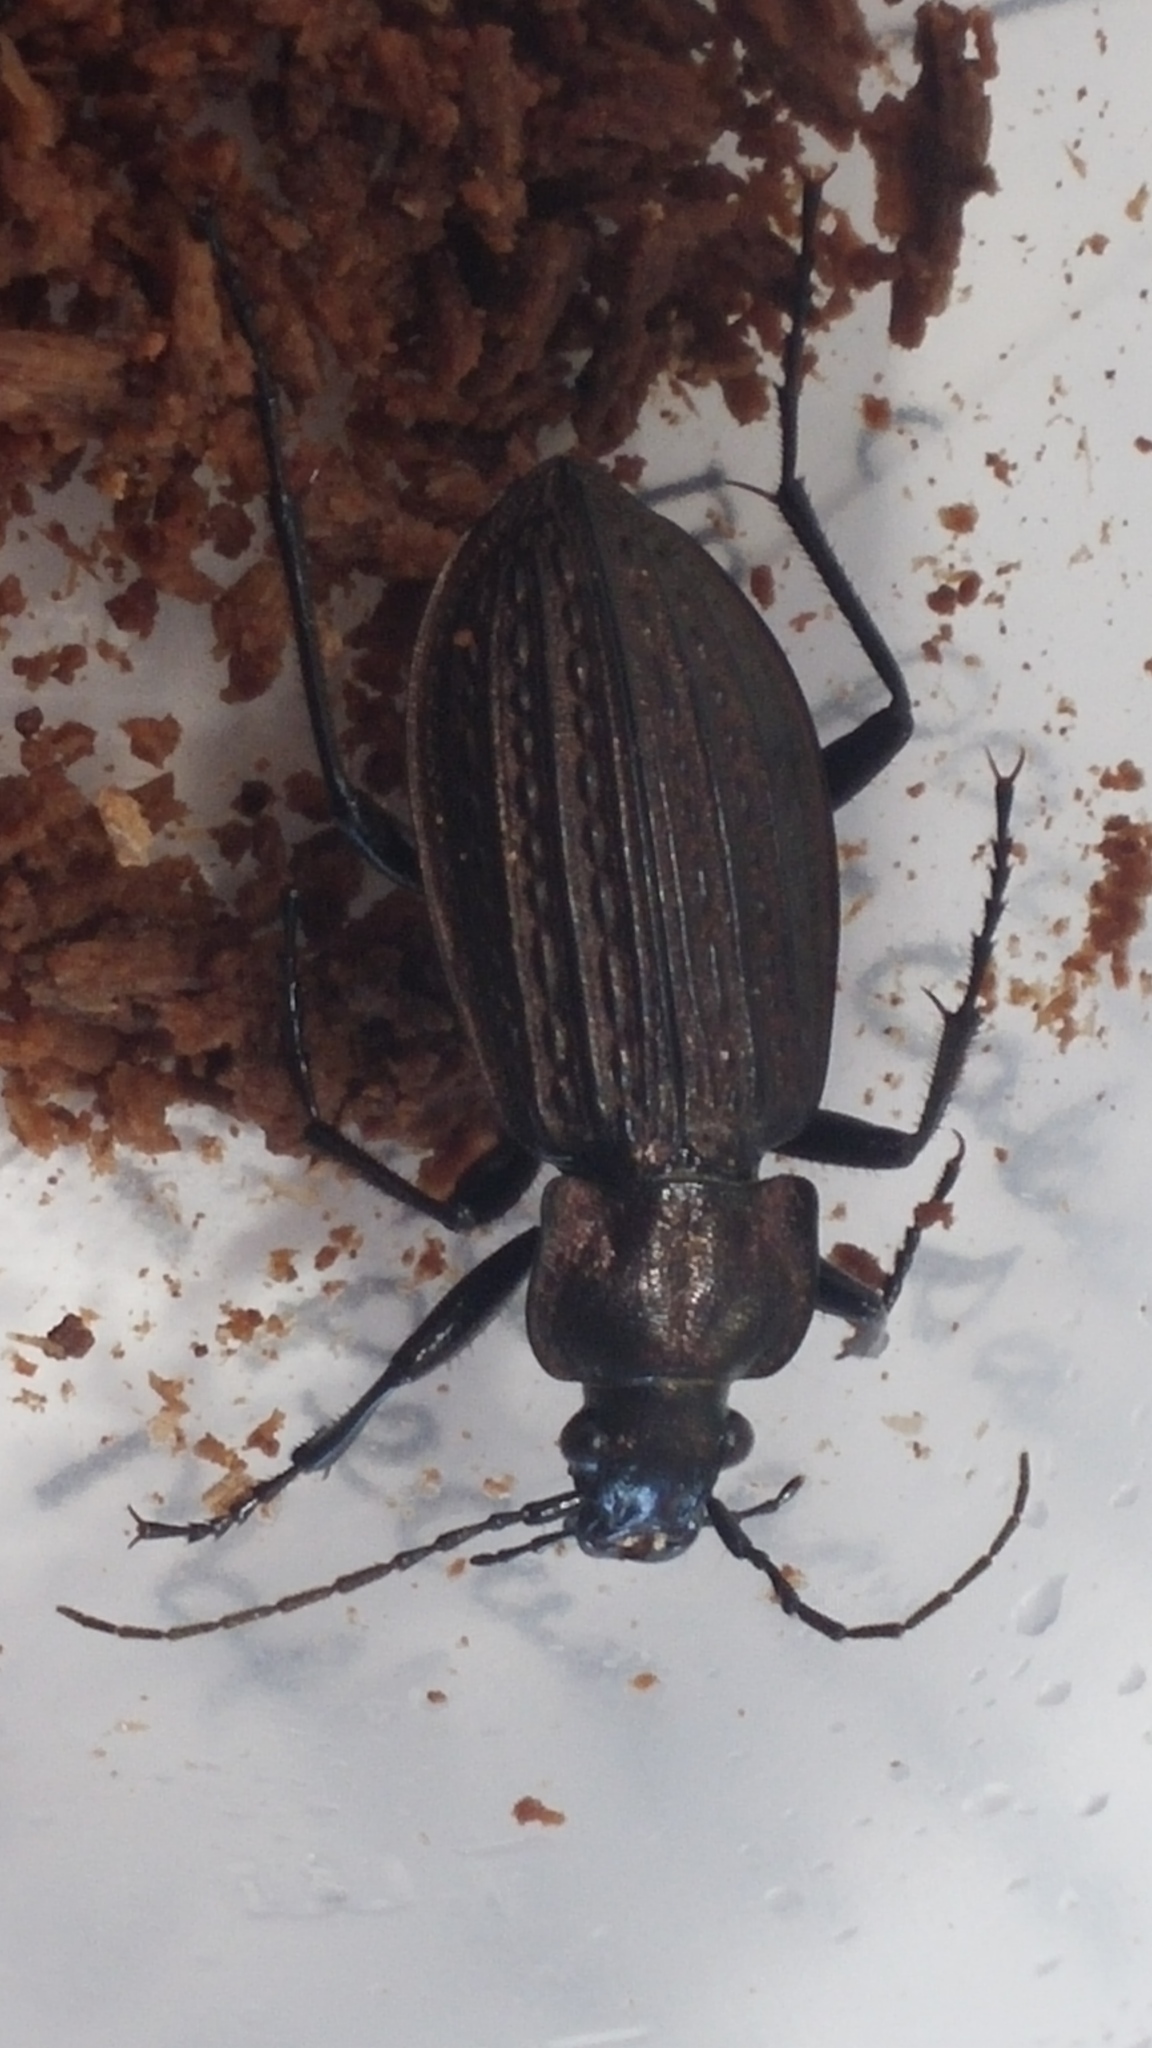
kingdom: Animalia
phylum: Arthropoda
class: Insecta
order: Coleoptera
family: Carabidae
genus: Carabus
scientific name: Carabus granulatus
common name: Granulate ground beetle
